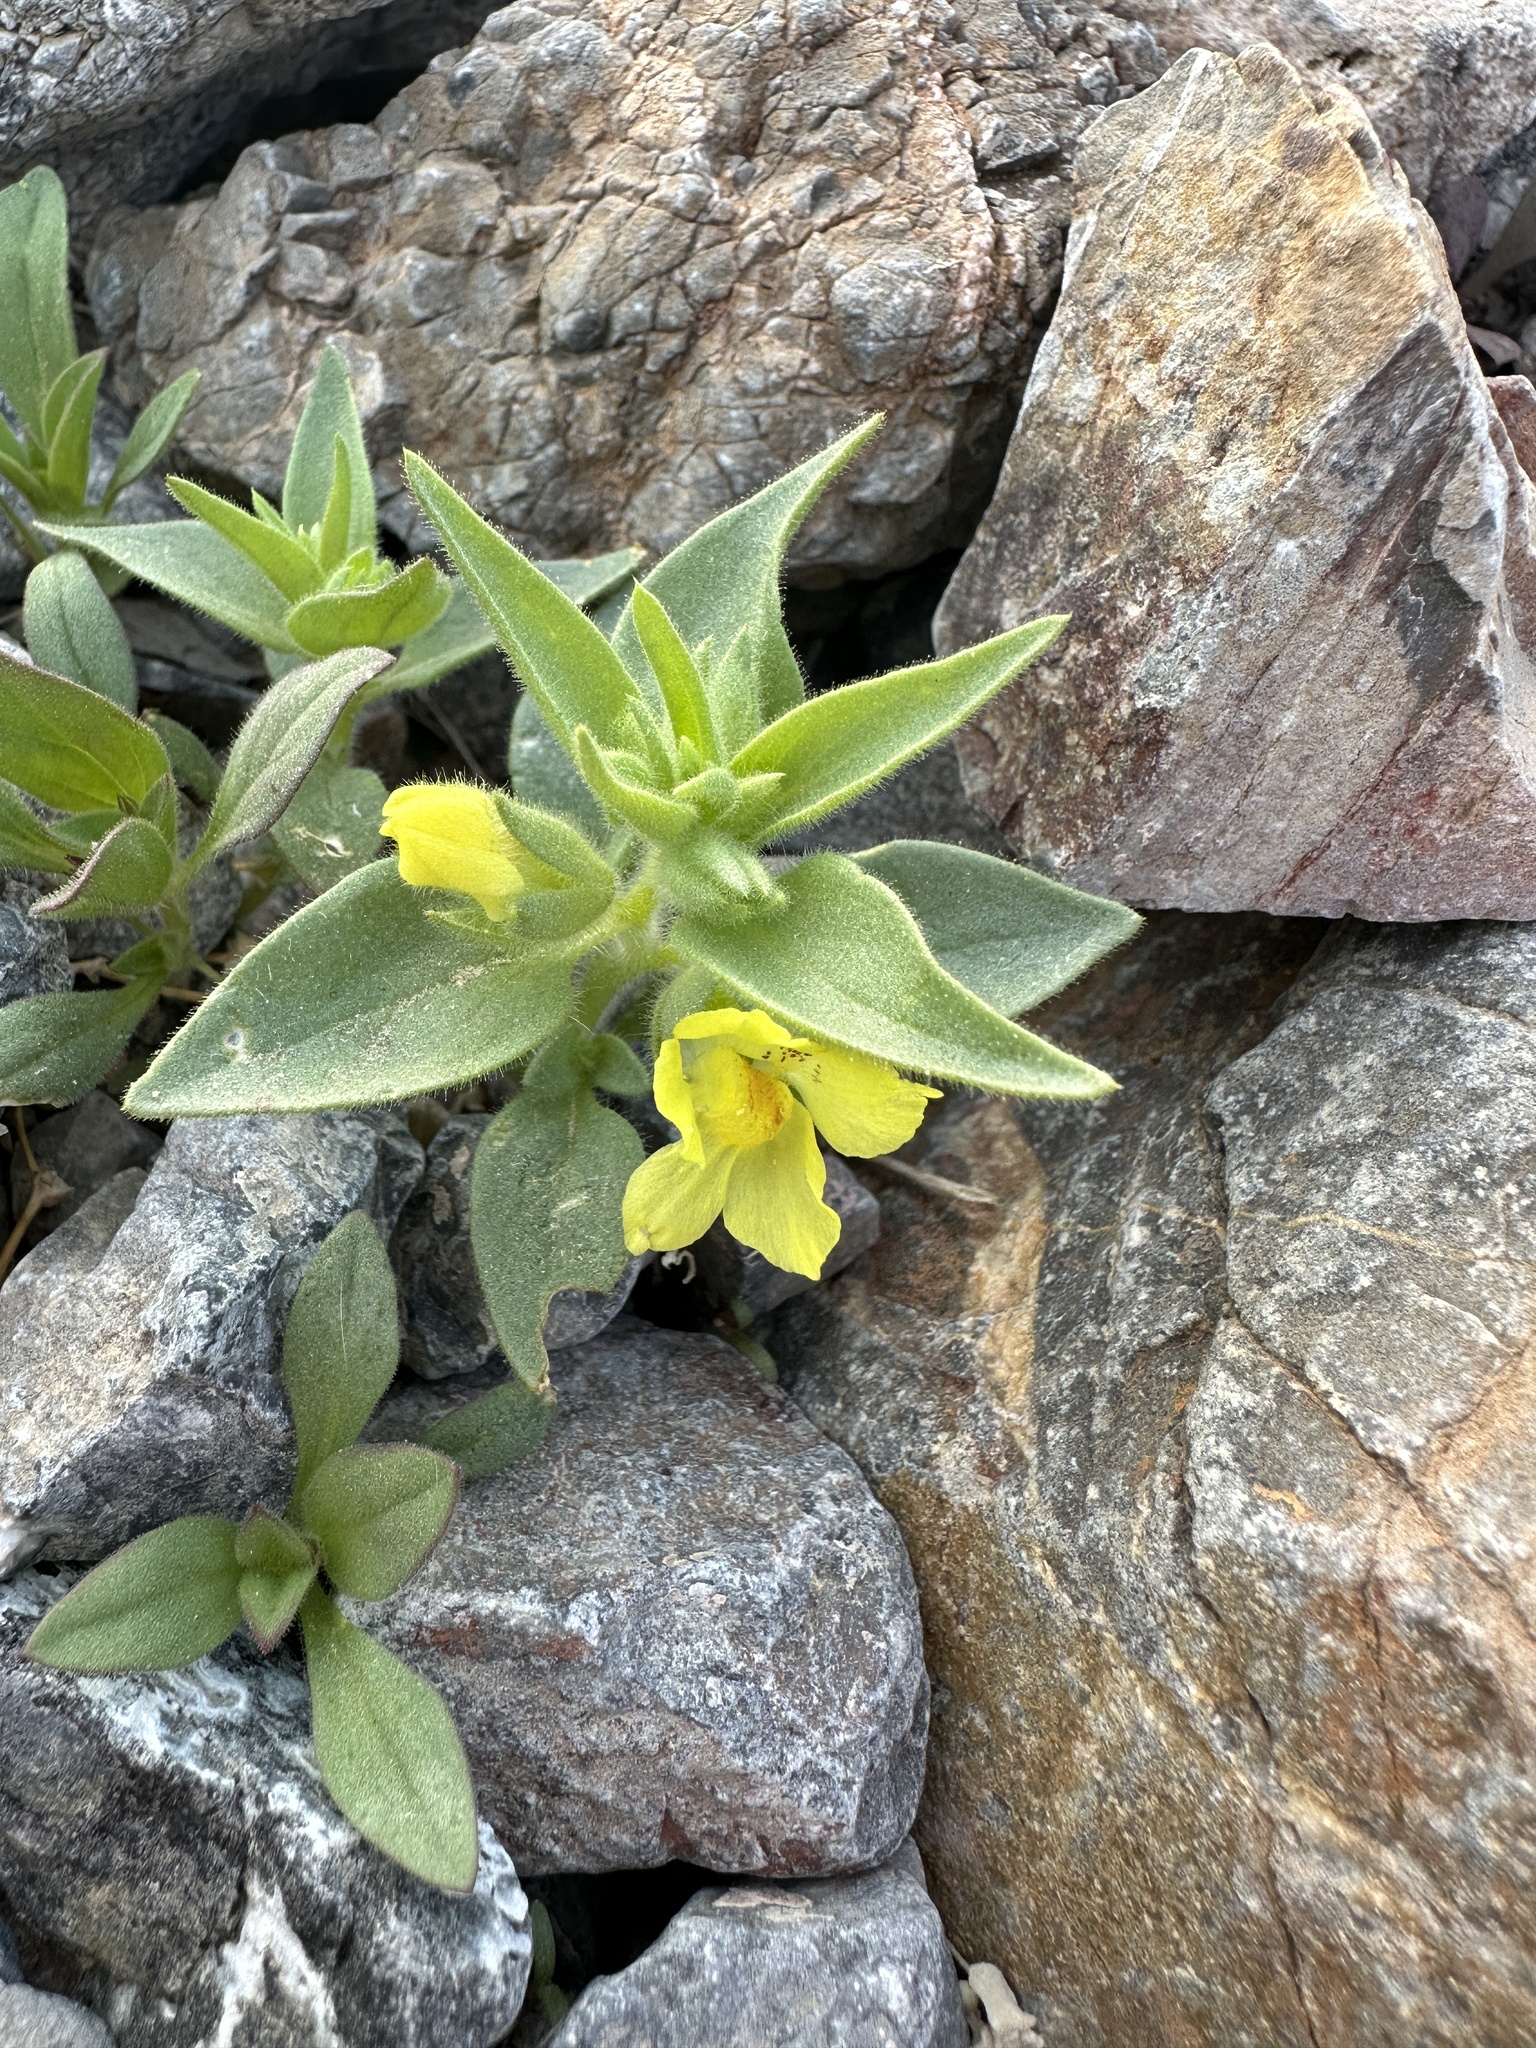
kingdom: Plantae
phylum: Tracheophyta
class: Magnoliopsida
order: Lamiales
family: Plantaginaceae
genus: Mohavea
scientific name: Mohavea breviflora
